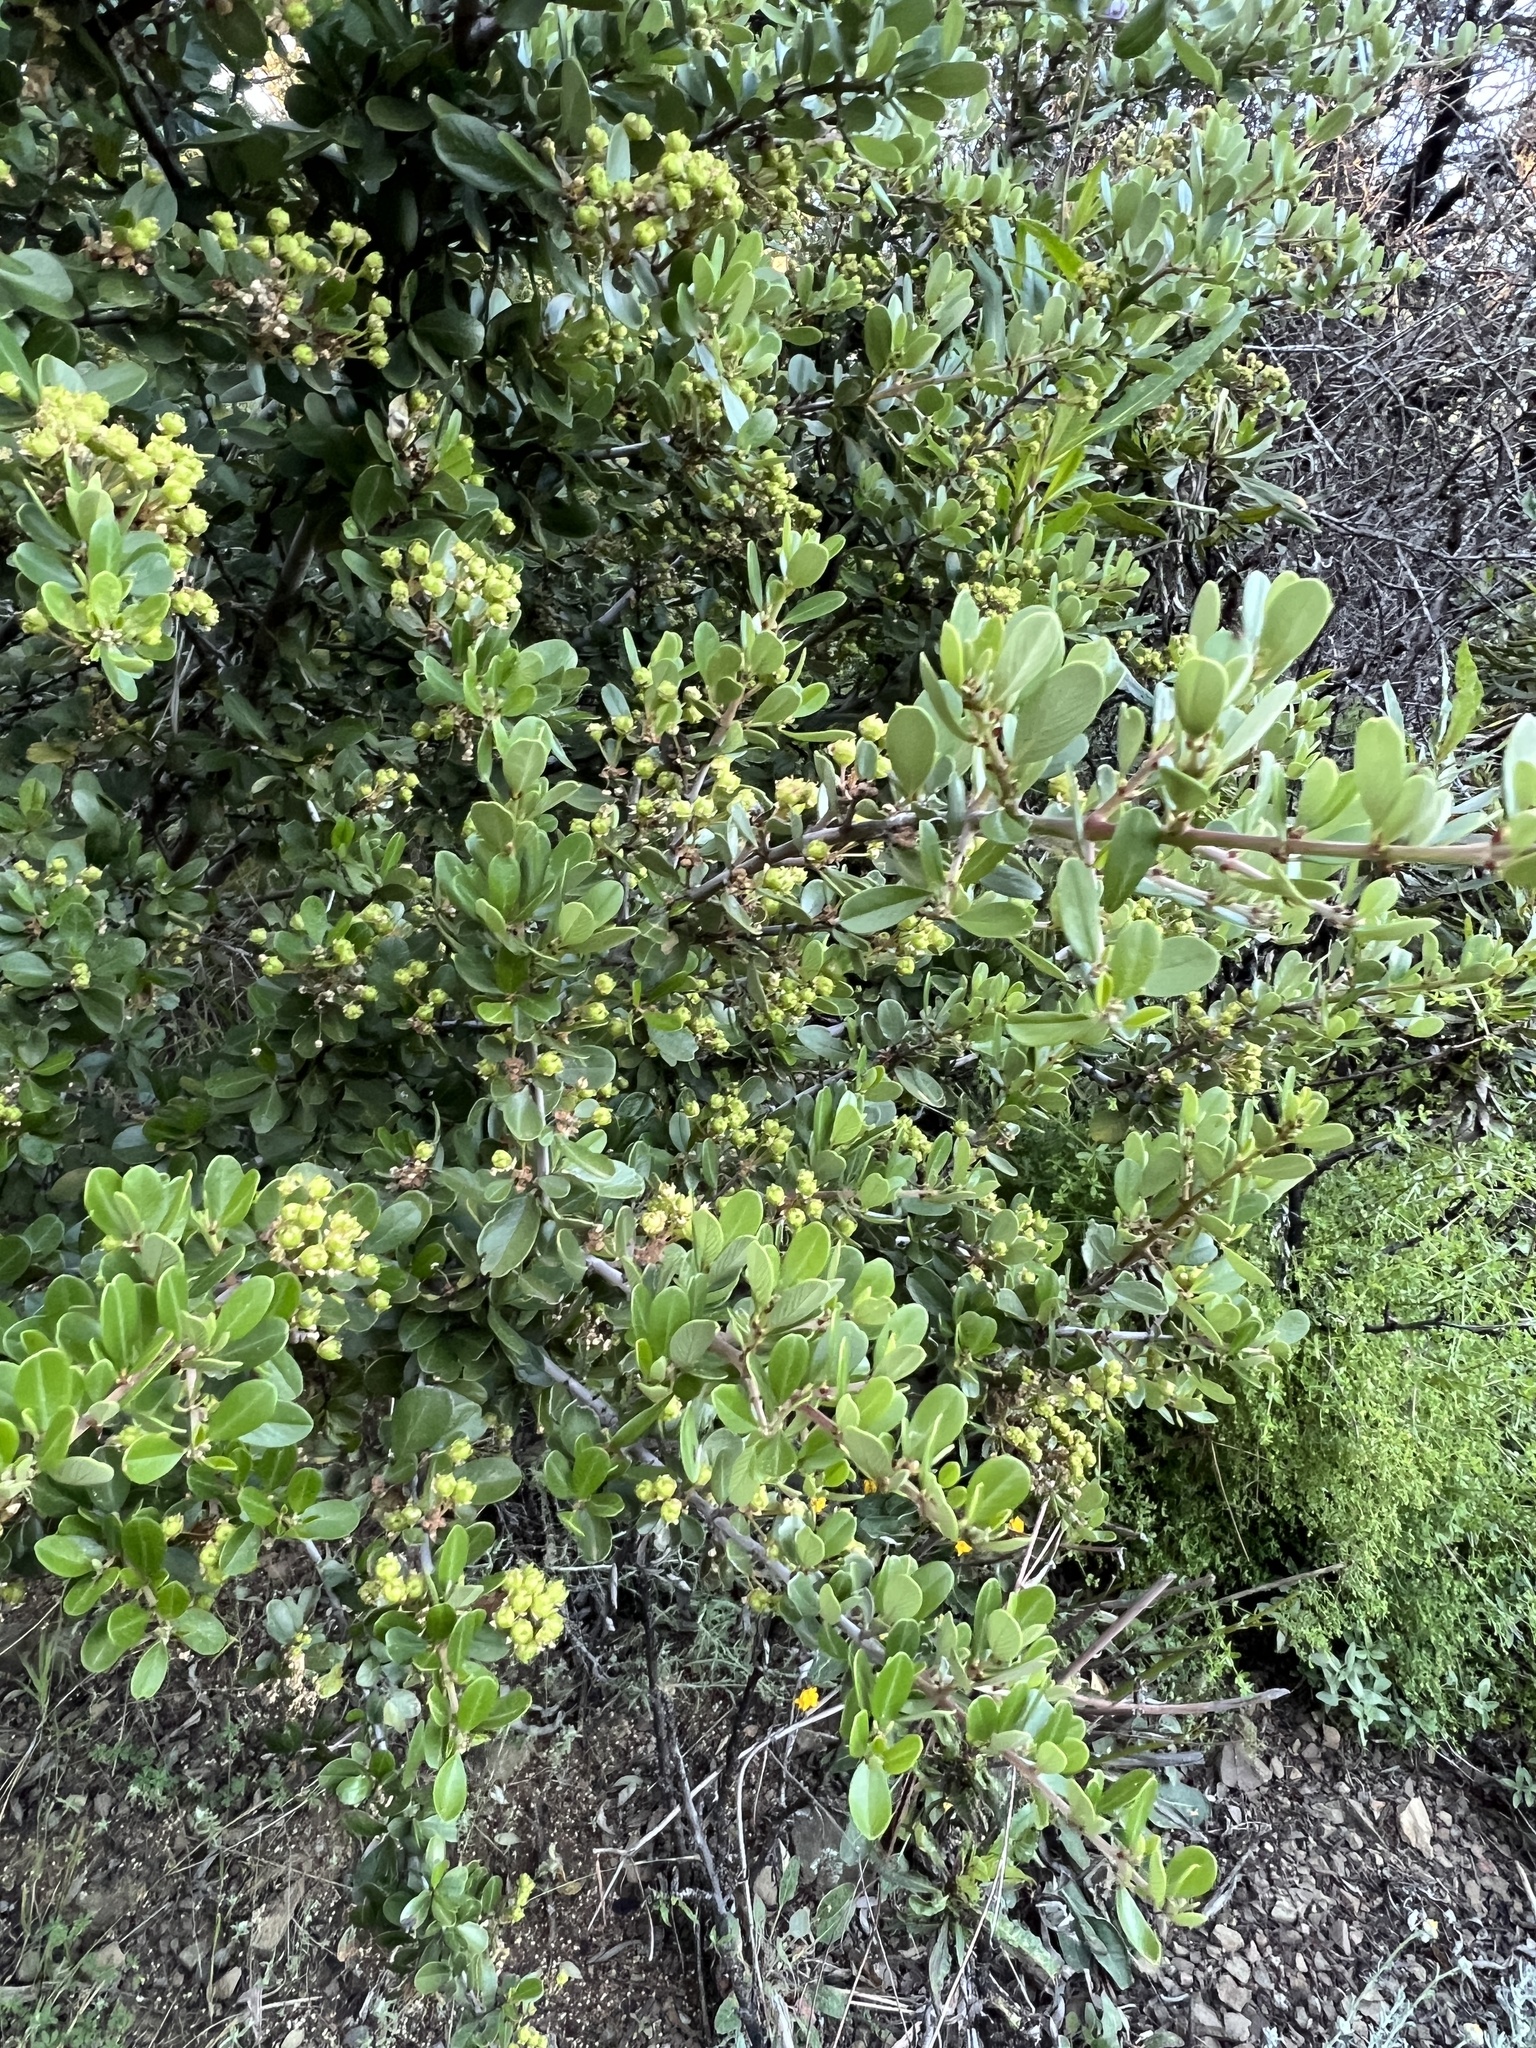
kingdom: Plantae
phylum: Tracheophyta
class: Magnoliopsida
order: Rosales
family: Rhamnaceae
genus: Ceanothus
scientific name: Ceanothus cuneatus
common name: Cuneate ceanothus
